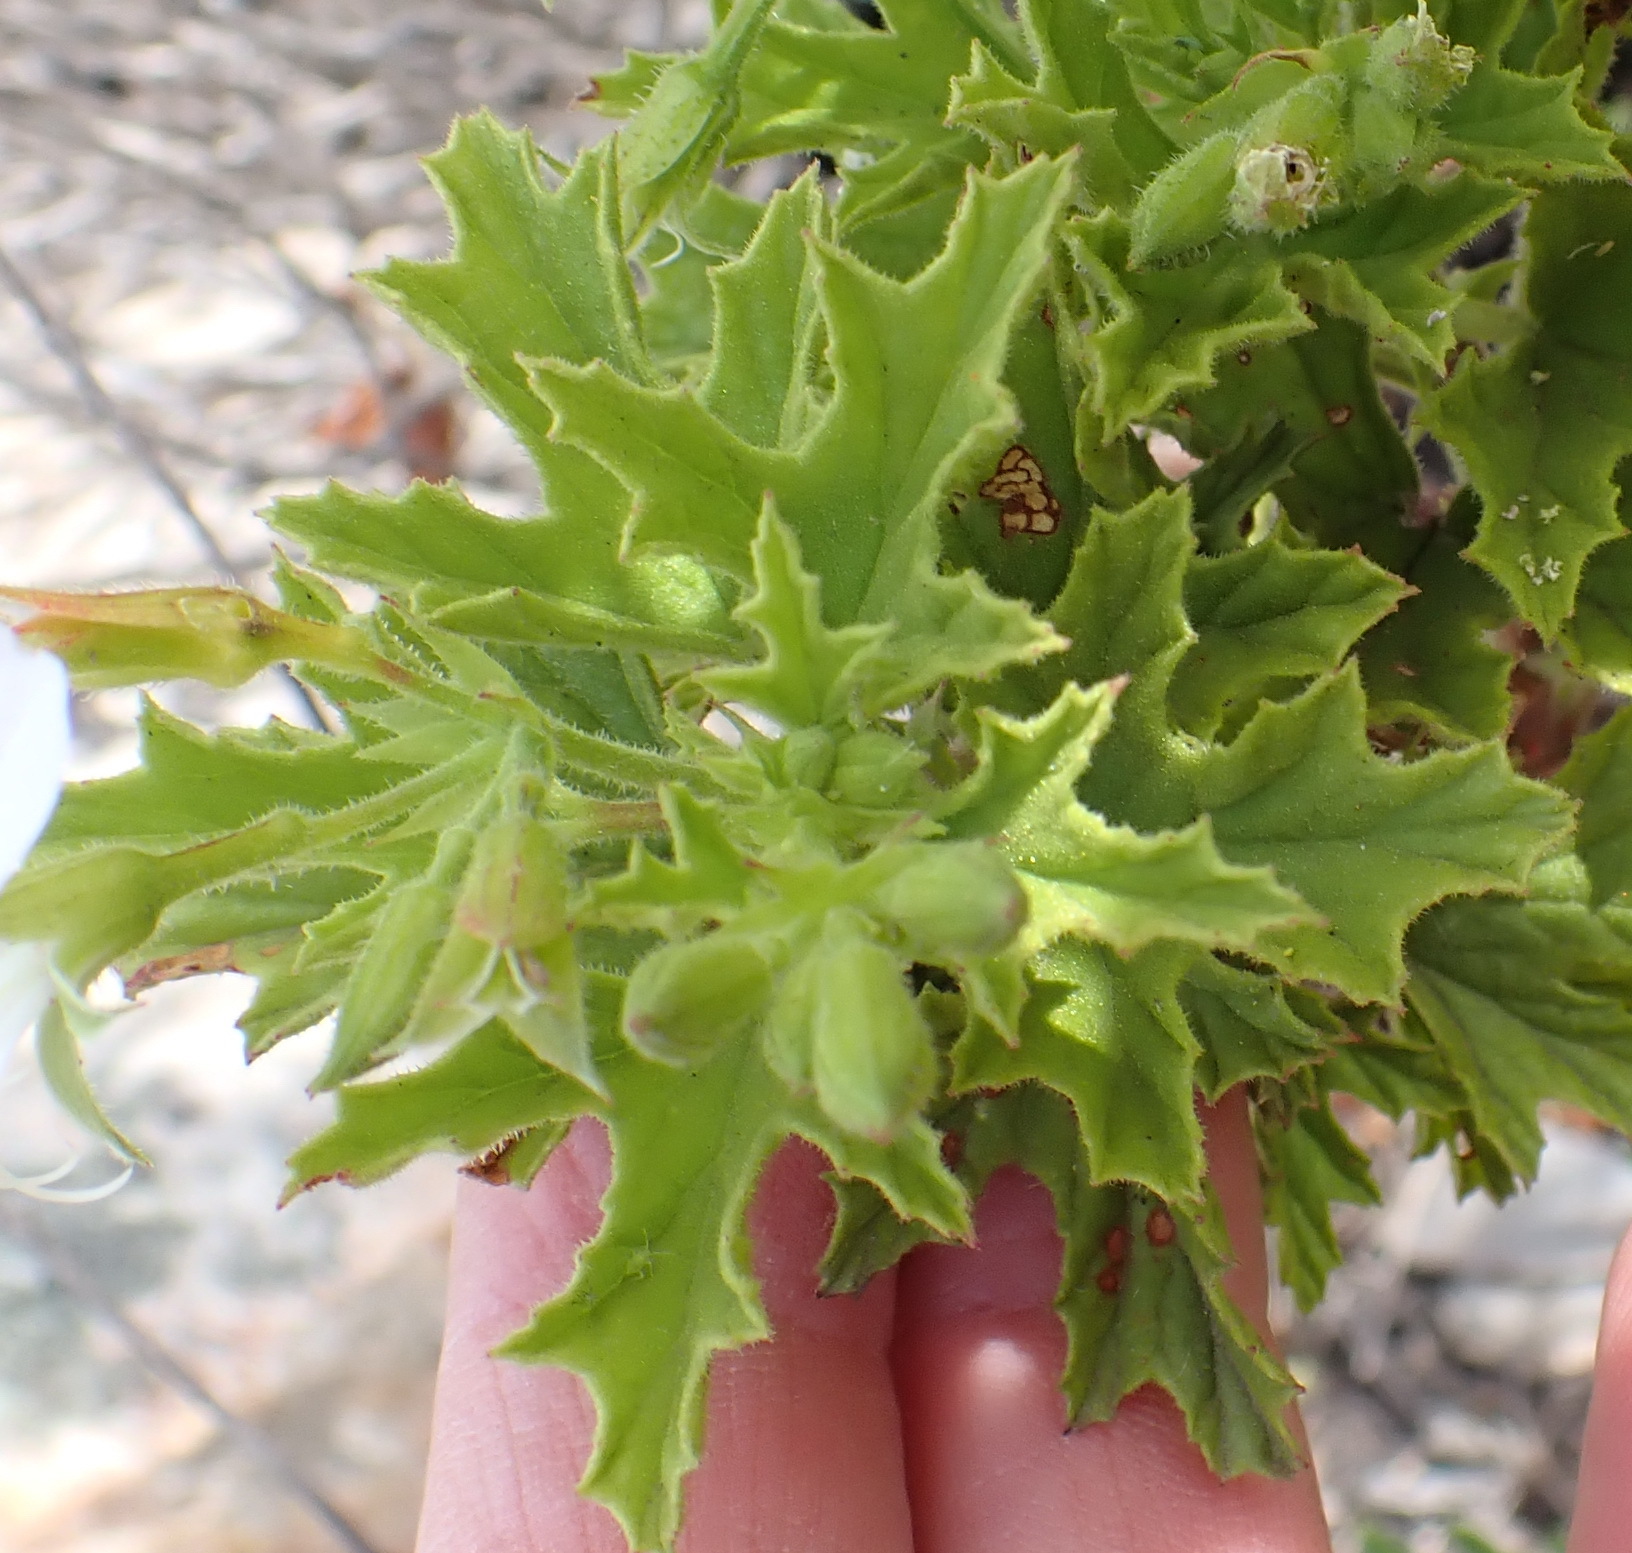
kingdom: Plantae
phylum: Tracheophyta
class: Magnoliopsida
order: Geraniales
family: Geraniaceae
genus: Pelargonium
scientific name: Pelargonium ribifolium
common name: Currant-leaf pelargonium
